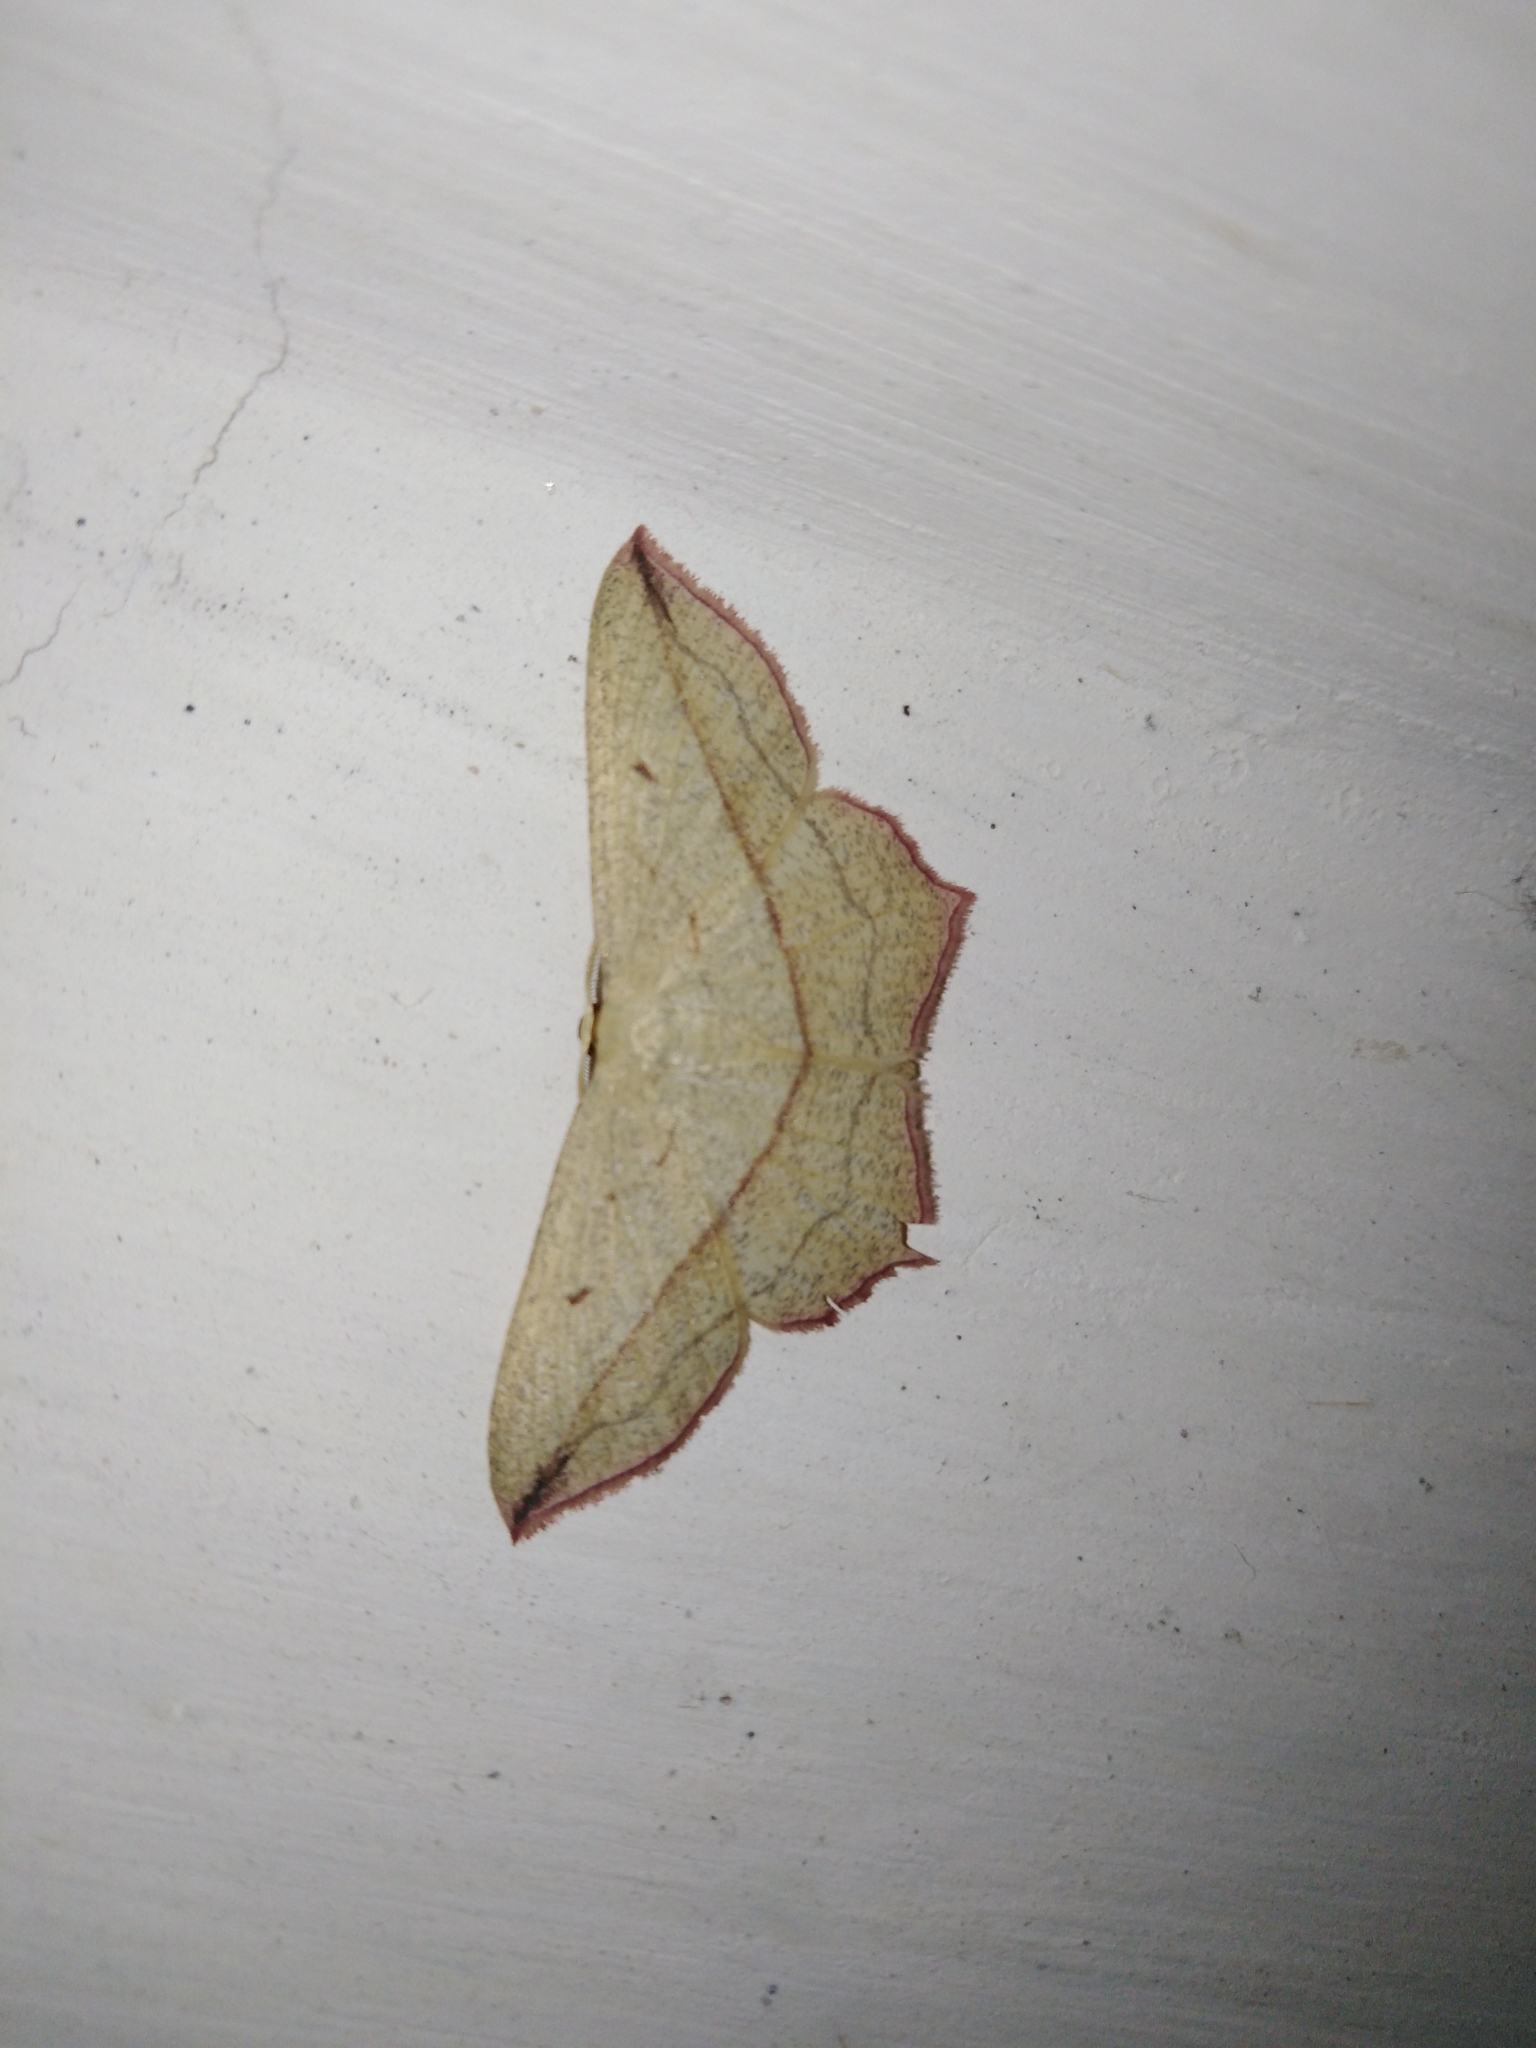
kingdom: Animalia
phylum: Arthropoda
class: Insecta
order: Lepidoptera
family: Geometridae
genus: Timandra
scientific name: Timandra comae
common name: Blood-vein
